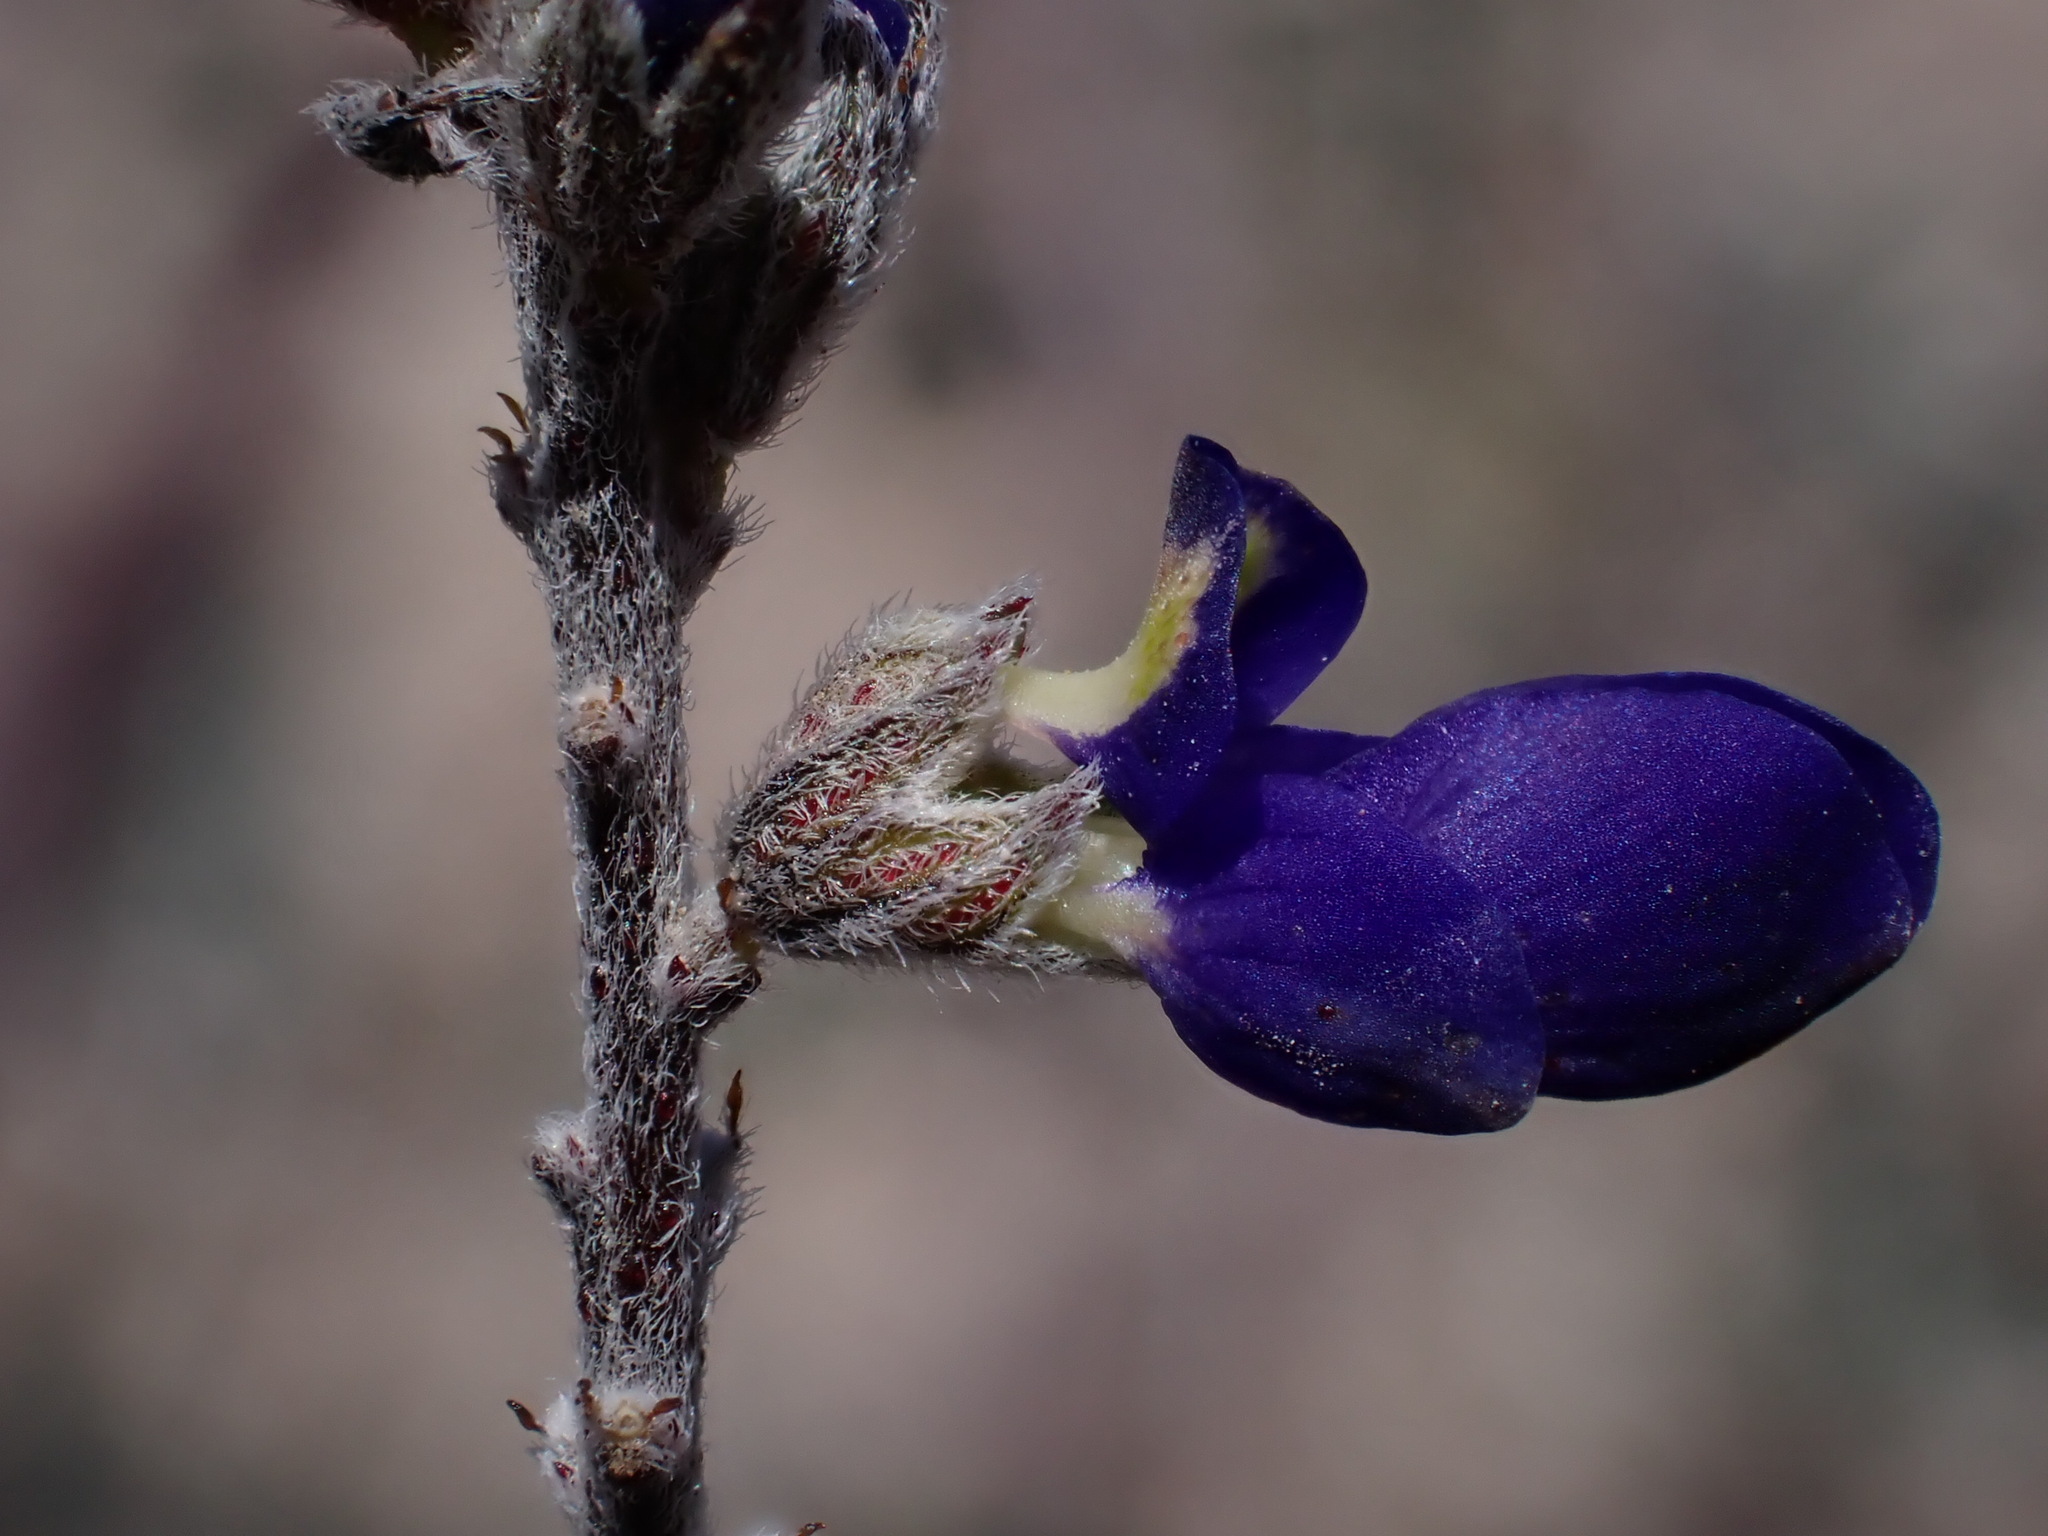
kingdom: Plantae
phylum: Tracheophyta
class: Magnoliopsida
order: Fabales
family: Fabaceae
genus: Marina
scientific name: Marina parryi
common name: Parry's marina
